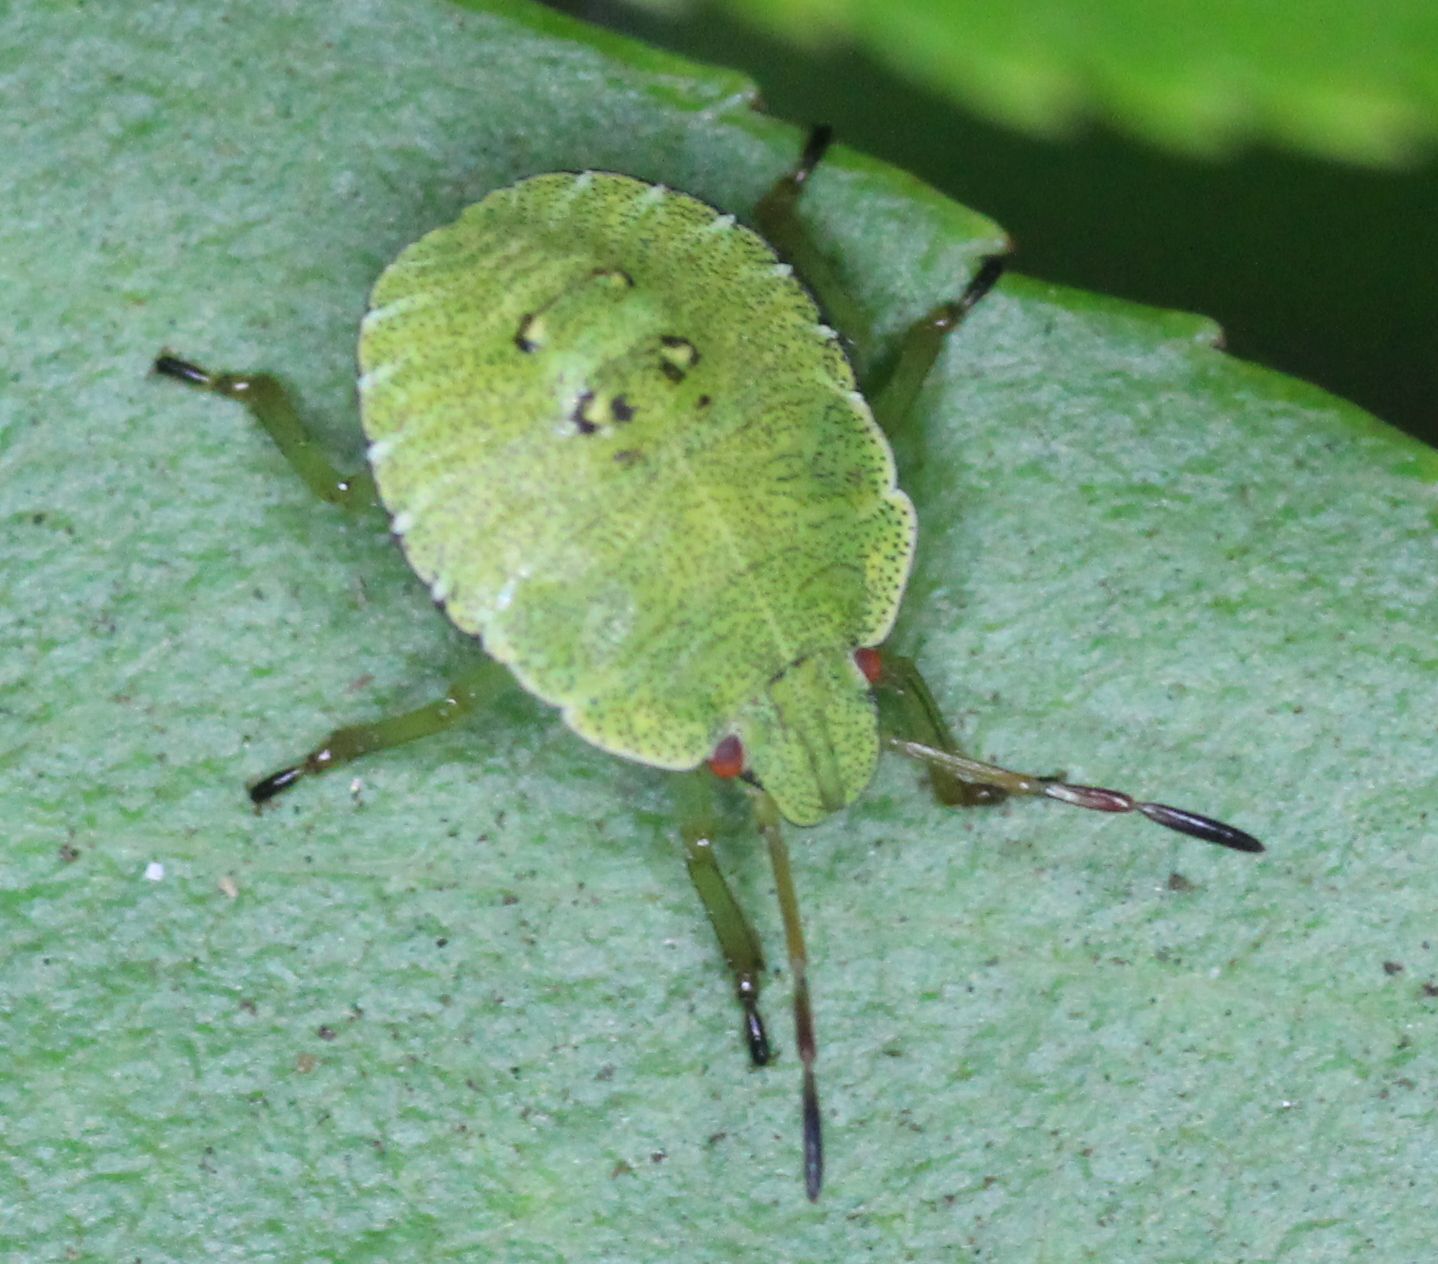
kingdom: Animalia
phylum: Arthropoda
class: Insecta
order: Hemiptera
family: Pentatomidae
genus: Palomena
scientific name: Palomena prasina
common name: Green shieldbug
